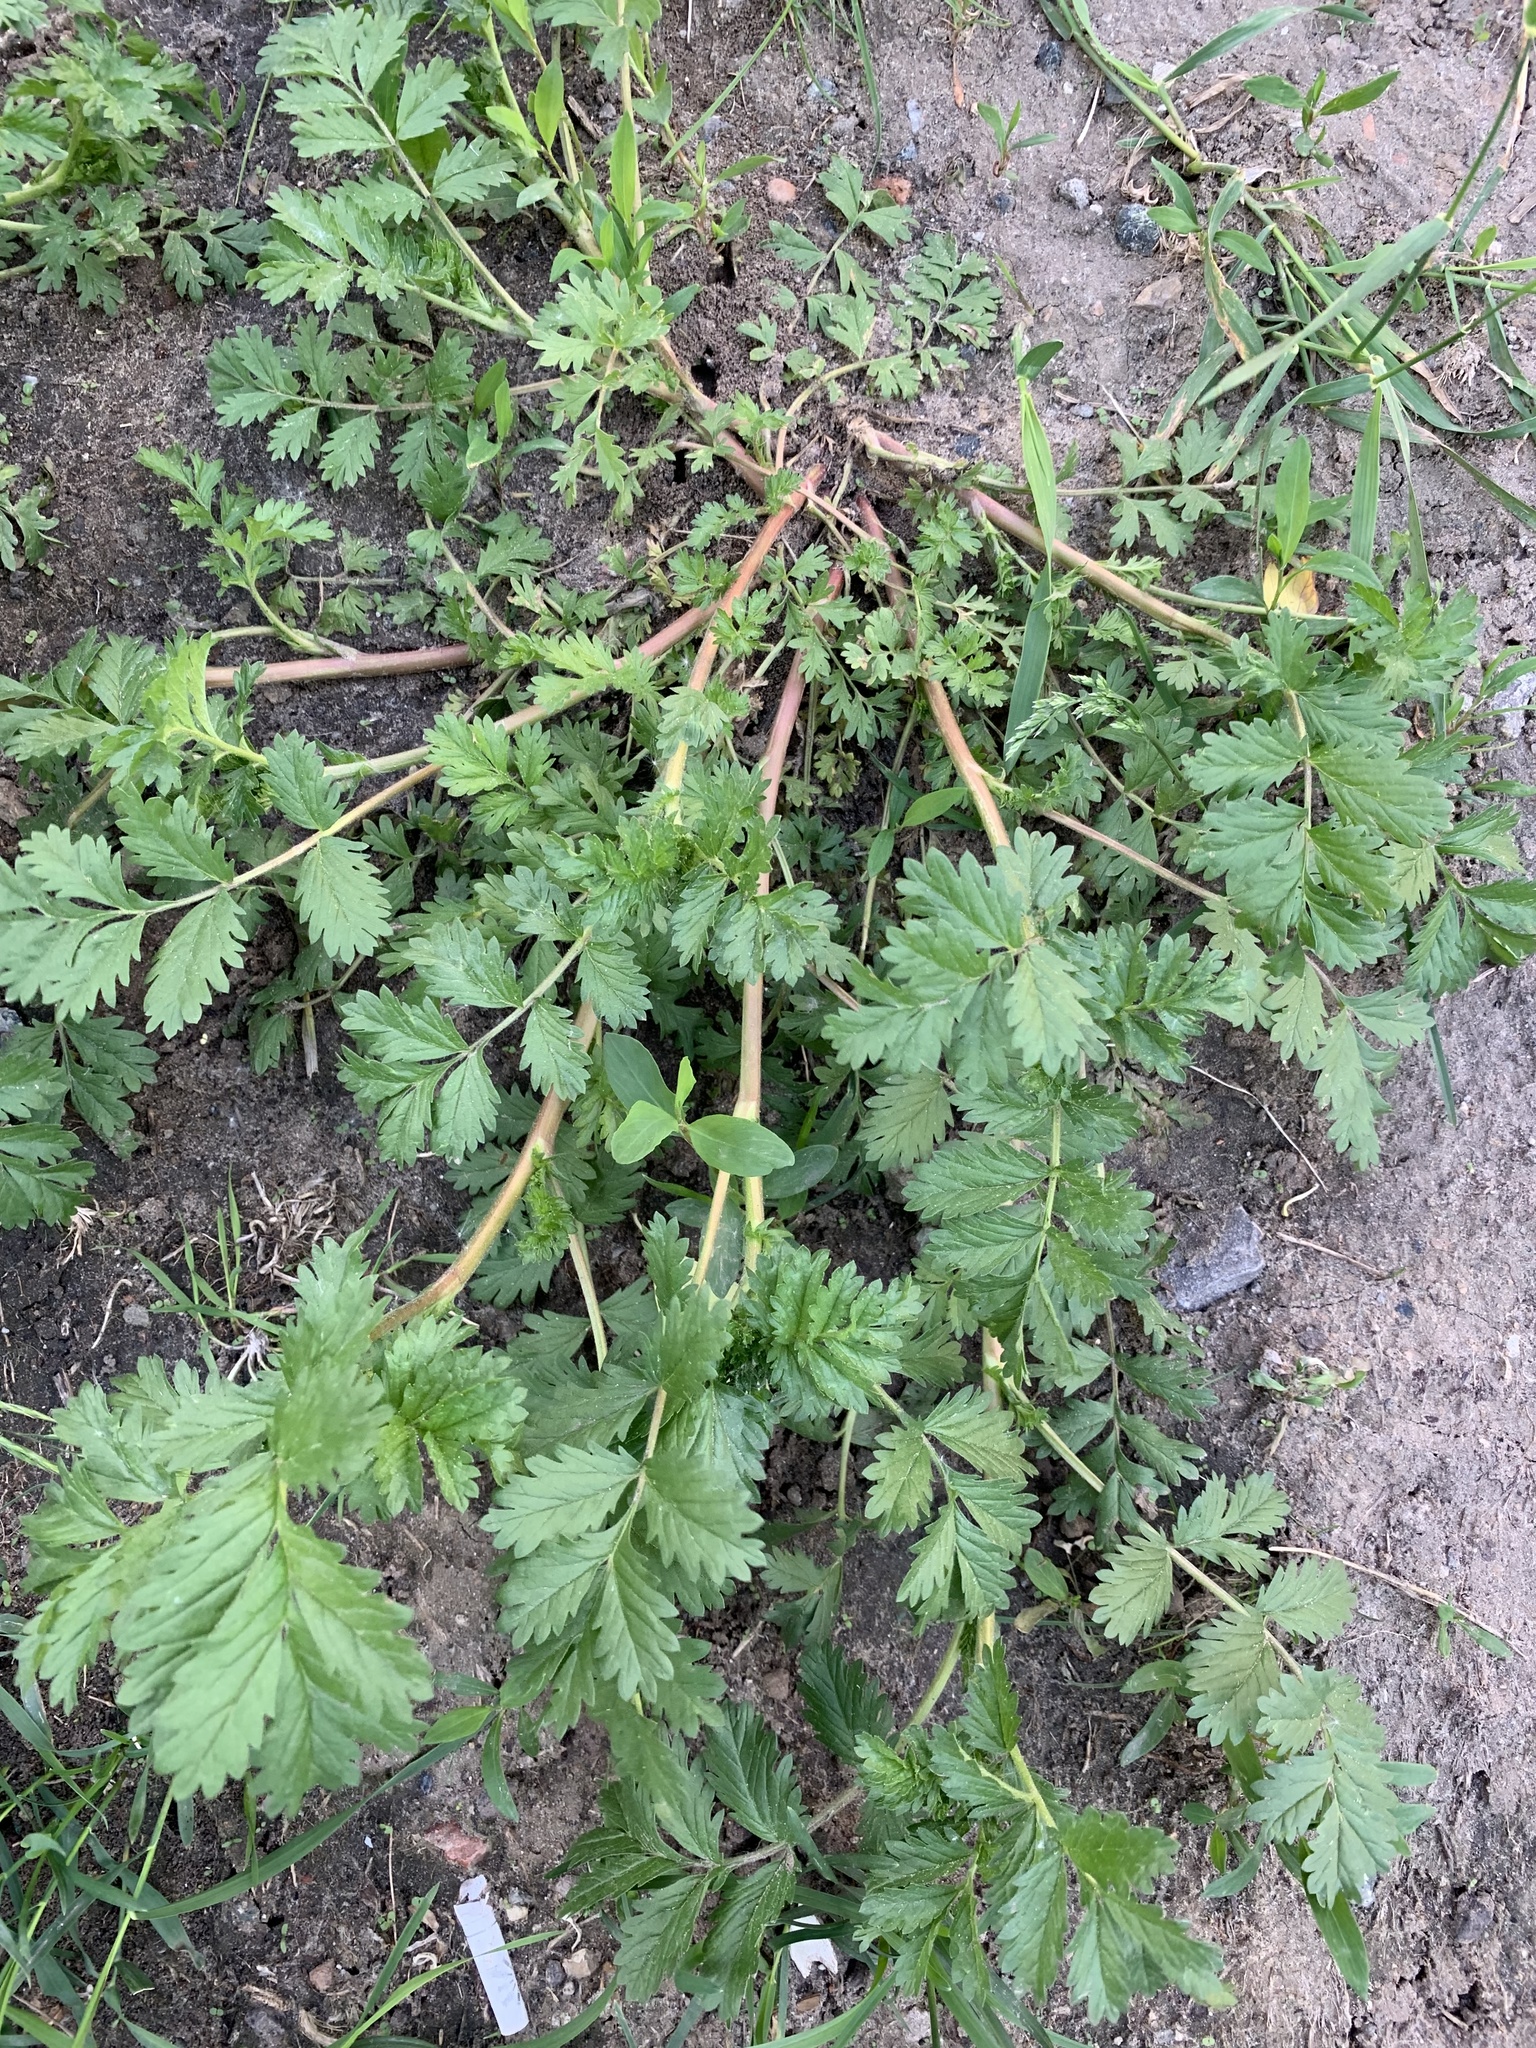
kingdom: Plantae
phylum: Tracheophyta
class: Magnoliopsida
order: Rosales
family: Rosaceae
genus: Potentilla
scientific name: Potentilla supina
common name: Prostrate cinquefoil
